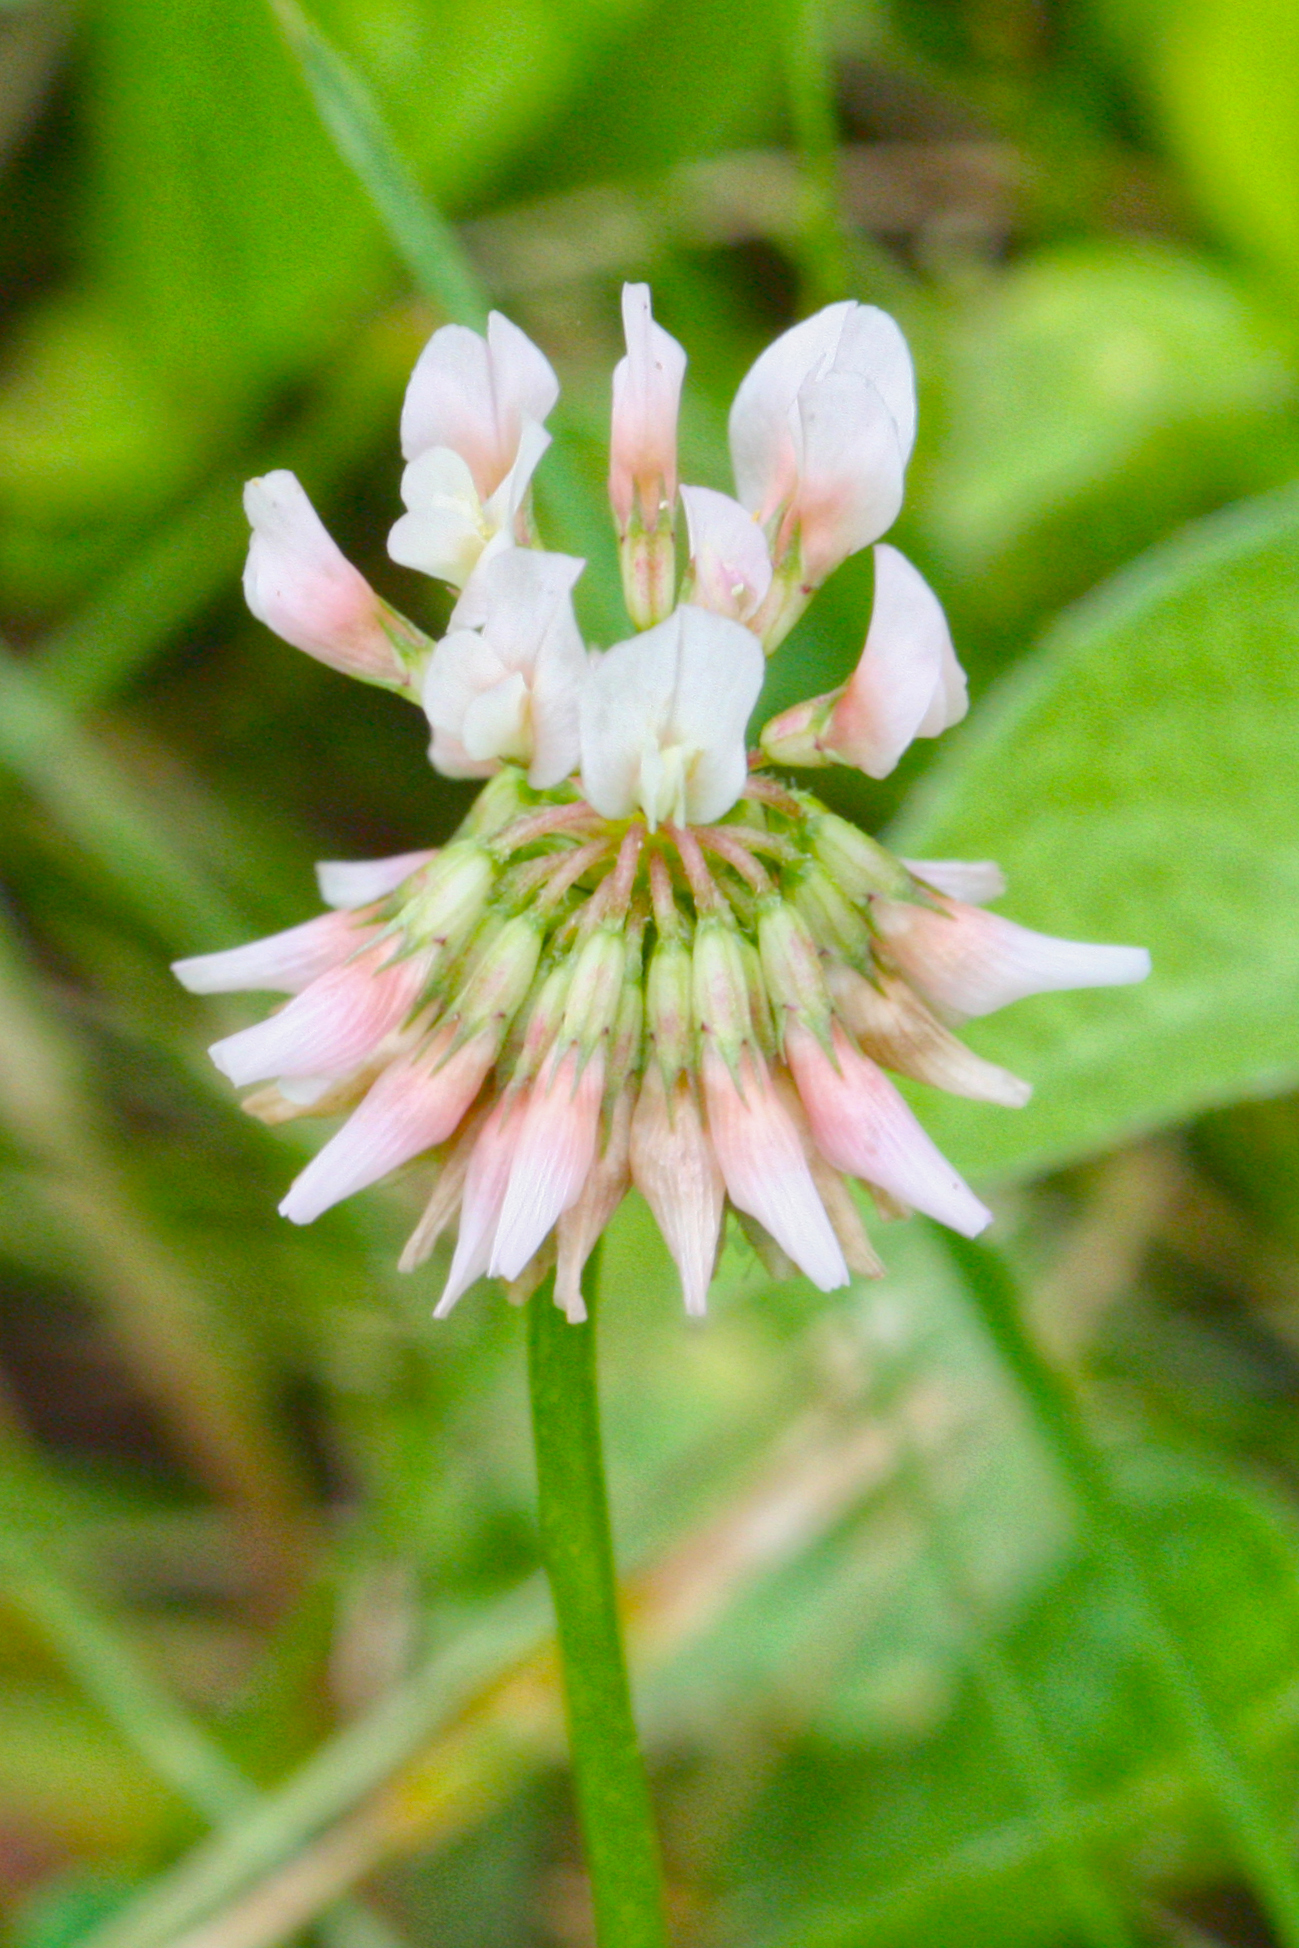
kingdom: Plantae
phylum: Tracheophyta
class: Magnoliopsida
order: Fabales
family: Fabaceae
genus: Trifolium
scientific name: Trifolium repens
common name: White clover
